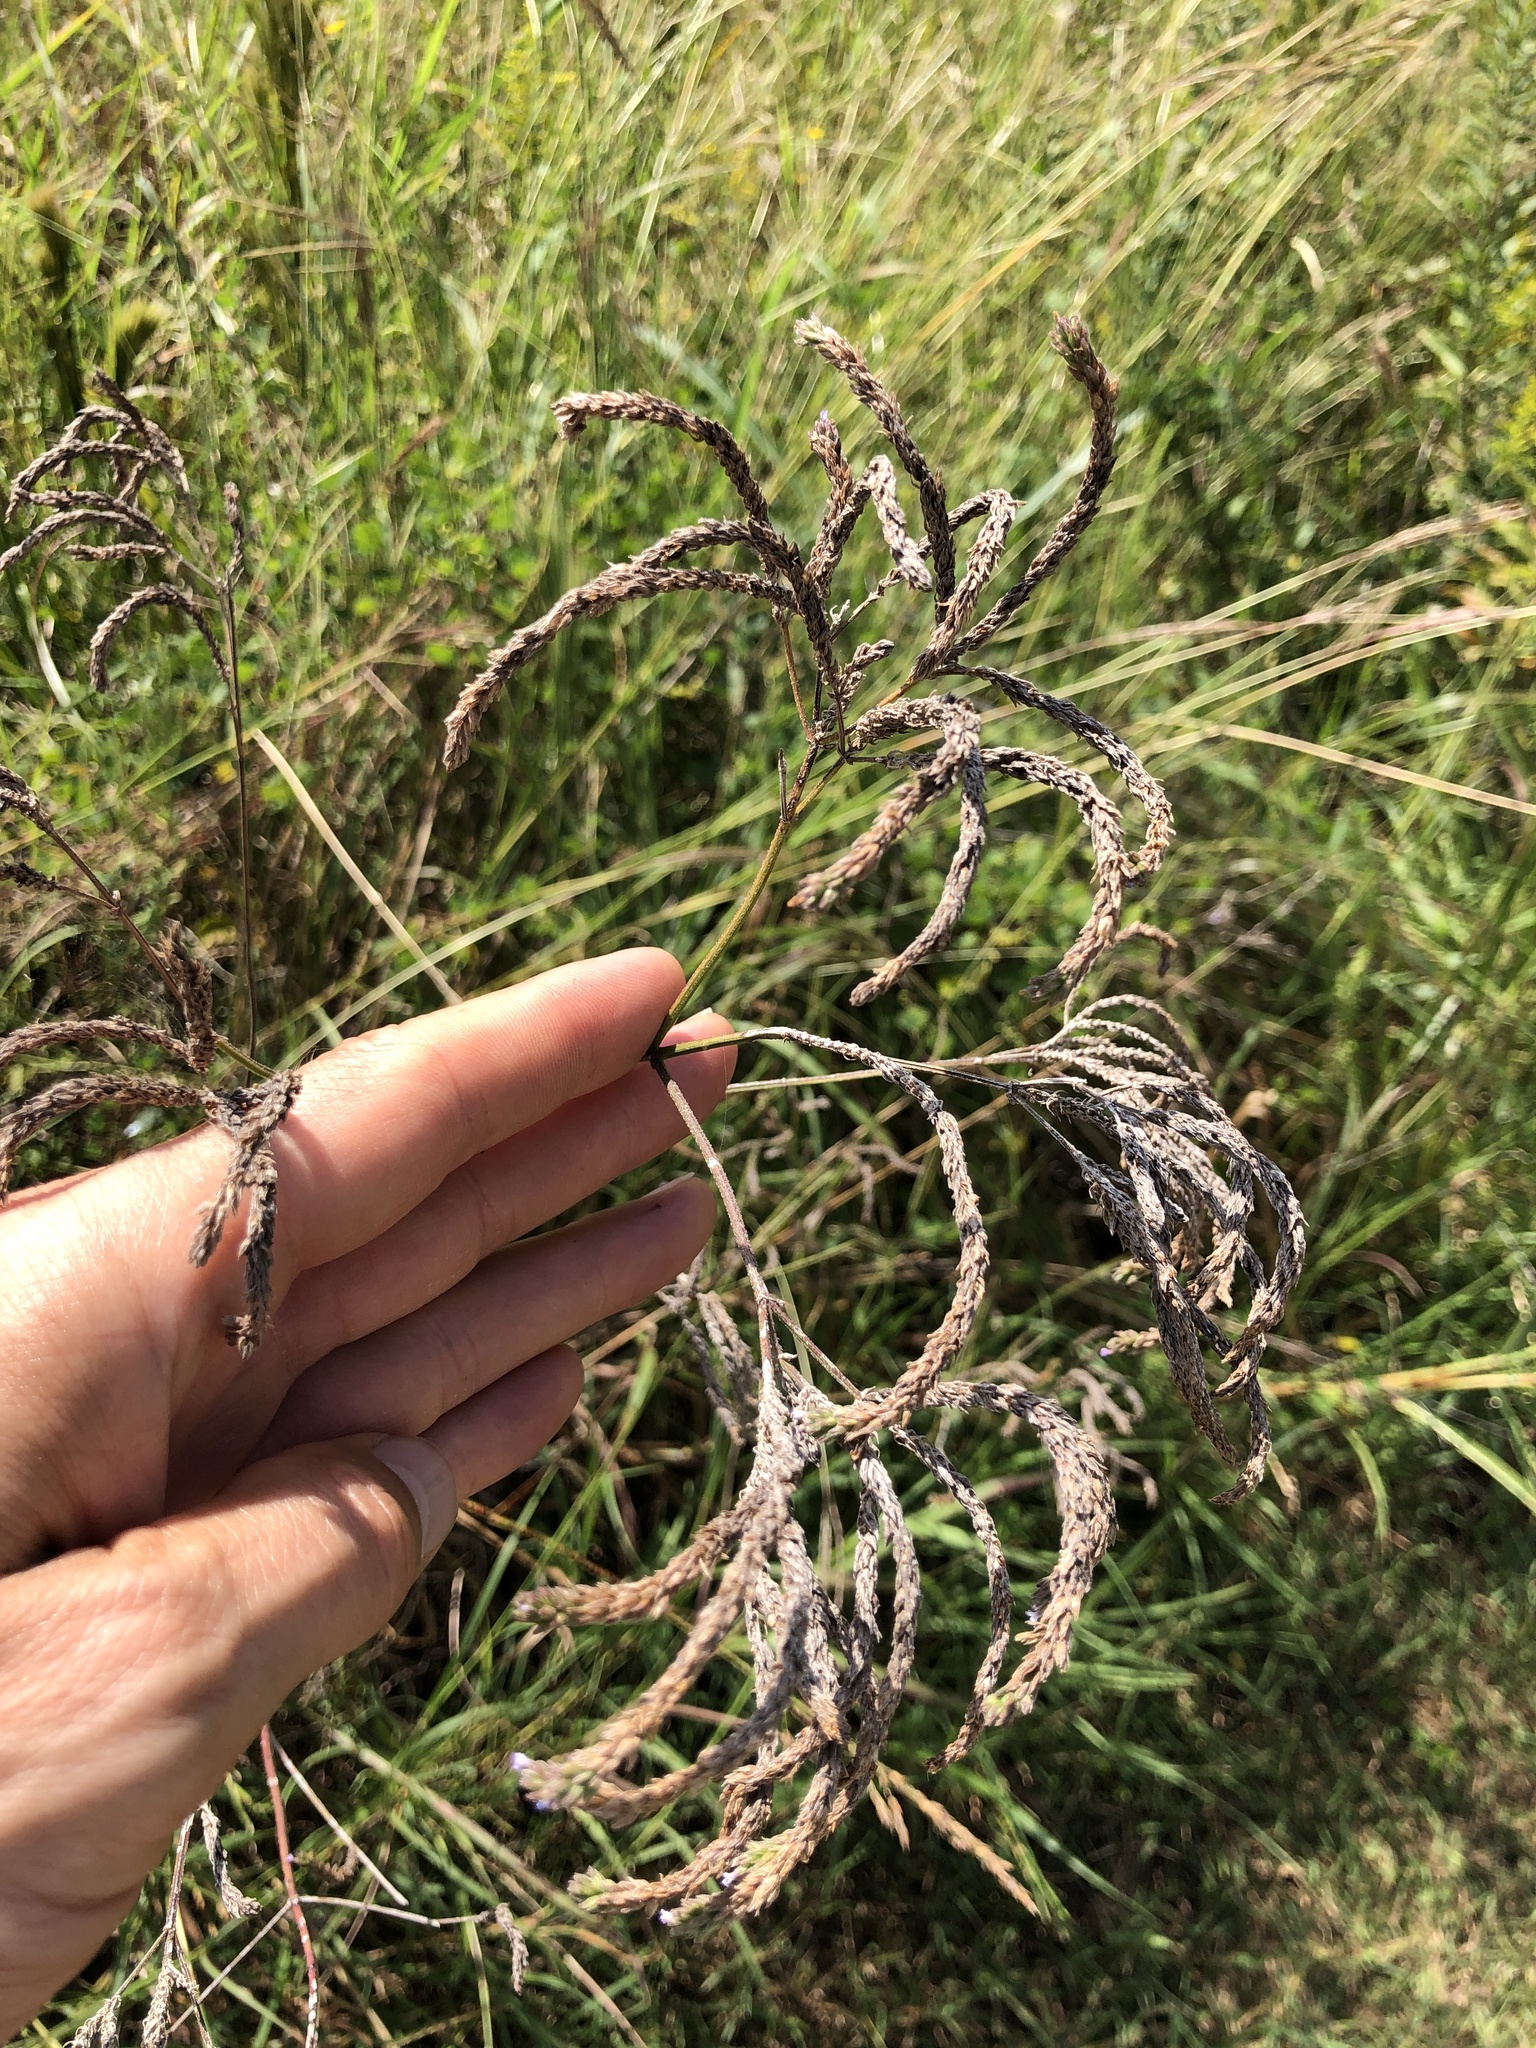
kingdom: Plantae
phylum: Tracheophyta
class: Magnoliopsida
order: Lamiales
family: Verbenaceae
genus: Verbena
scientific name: Verbena brasiliensis
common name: Brazilian vervain
